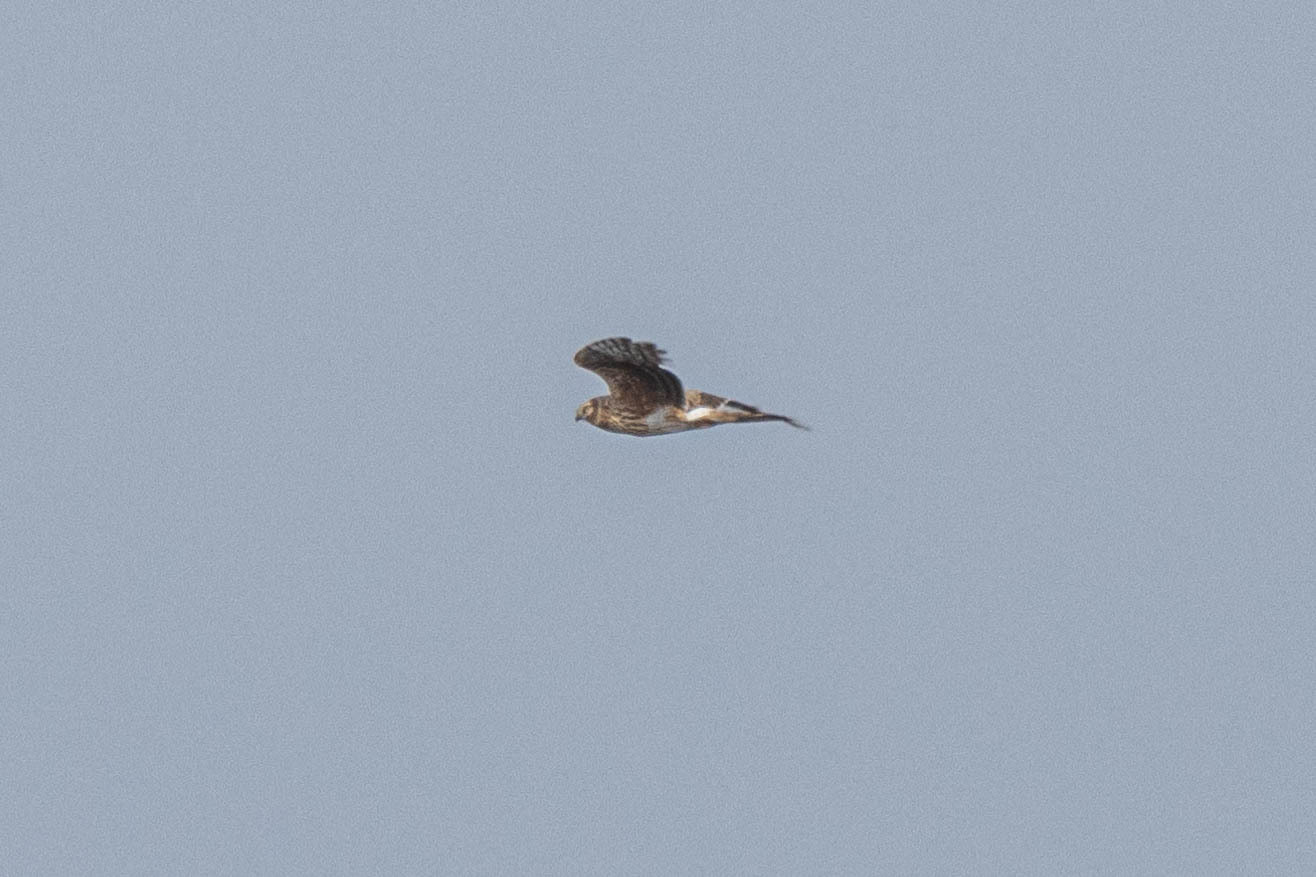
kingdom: Animalia
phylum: Chordata
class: Aves
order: Accipitriformes
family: Accipitridae
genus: Circus
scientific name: Circus cyaneus
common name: Hen harrier
